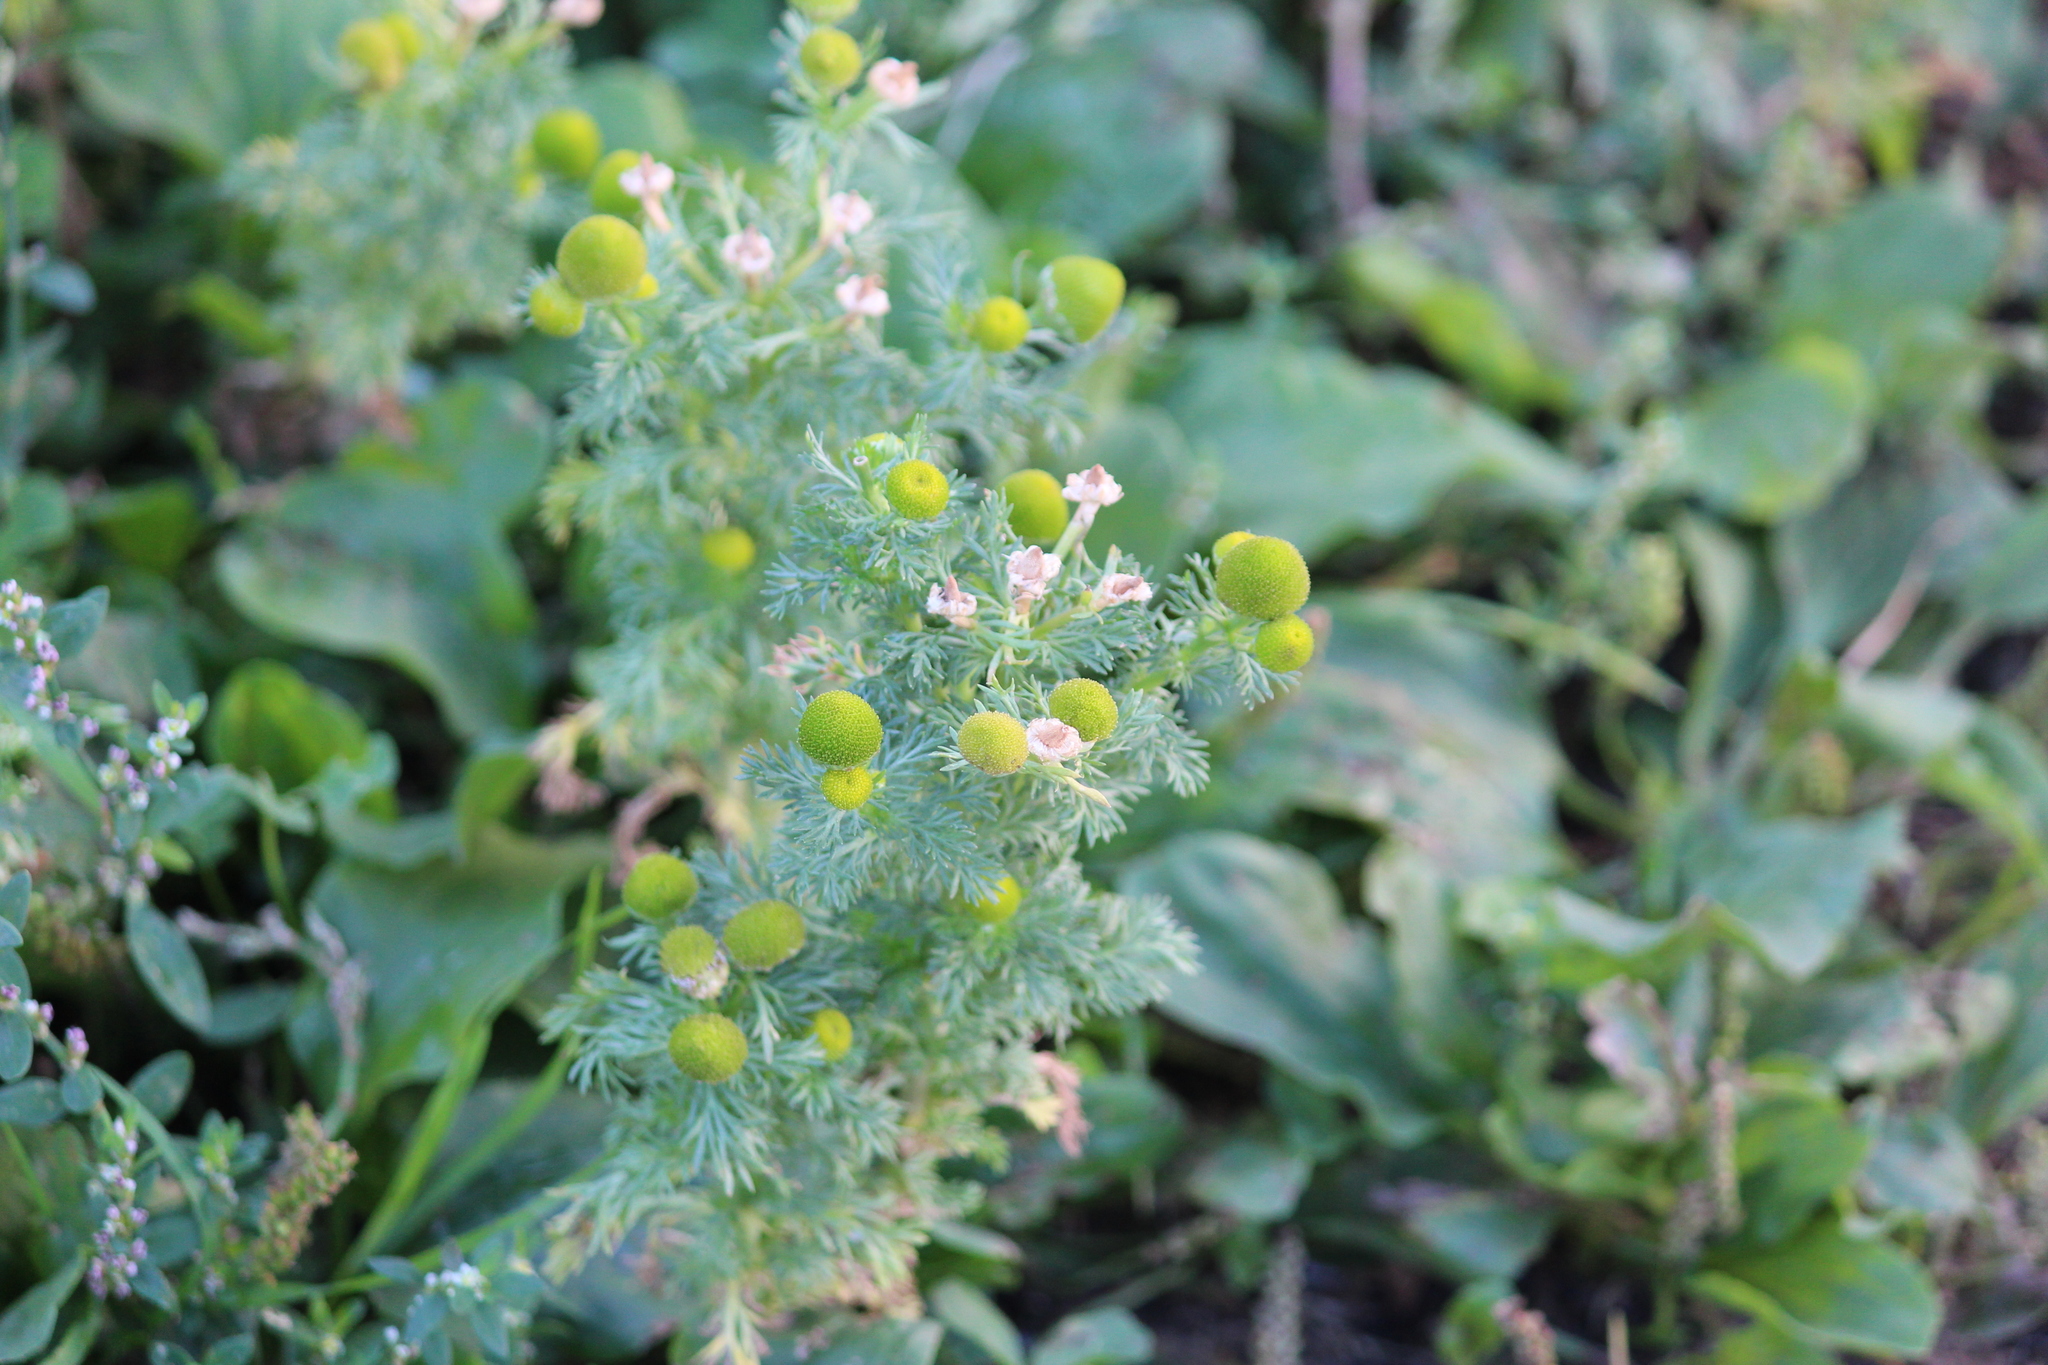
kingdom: Plantae
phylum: Tracheophyta
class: Magnoliopsida
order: Asterales
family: Asteraceae
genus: Matricaria
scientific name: Matricaria discoidea
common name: Disc mayweed
